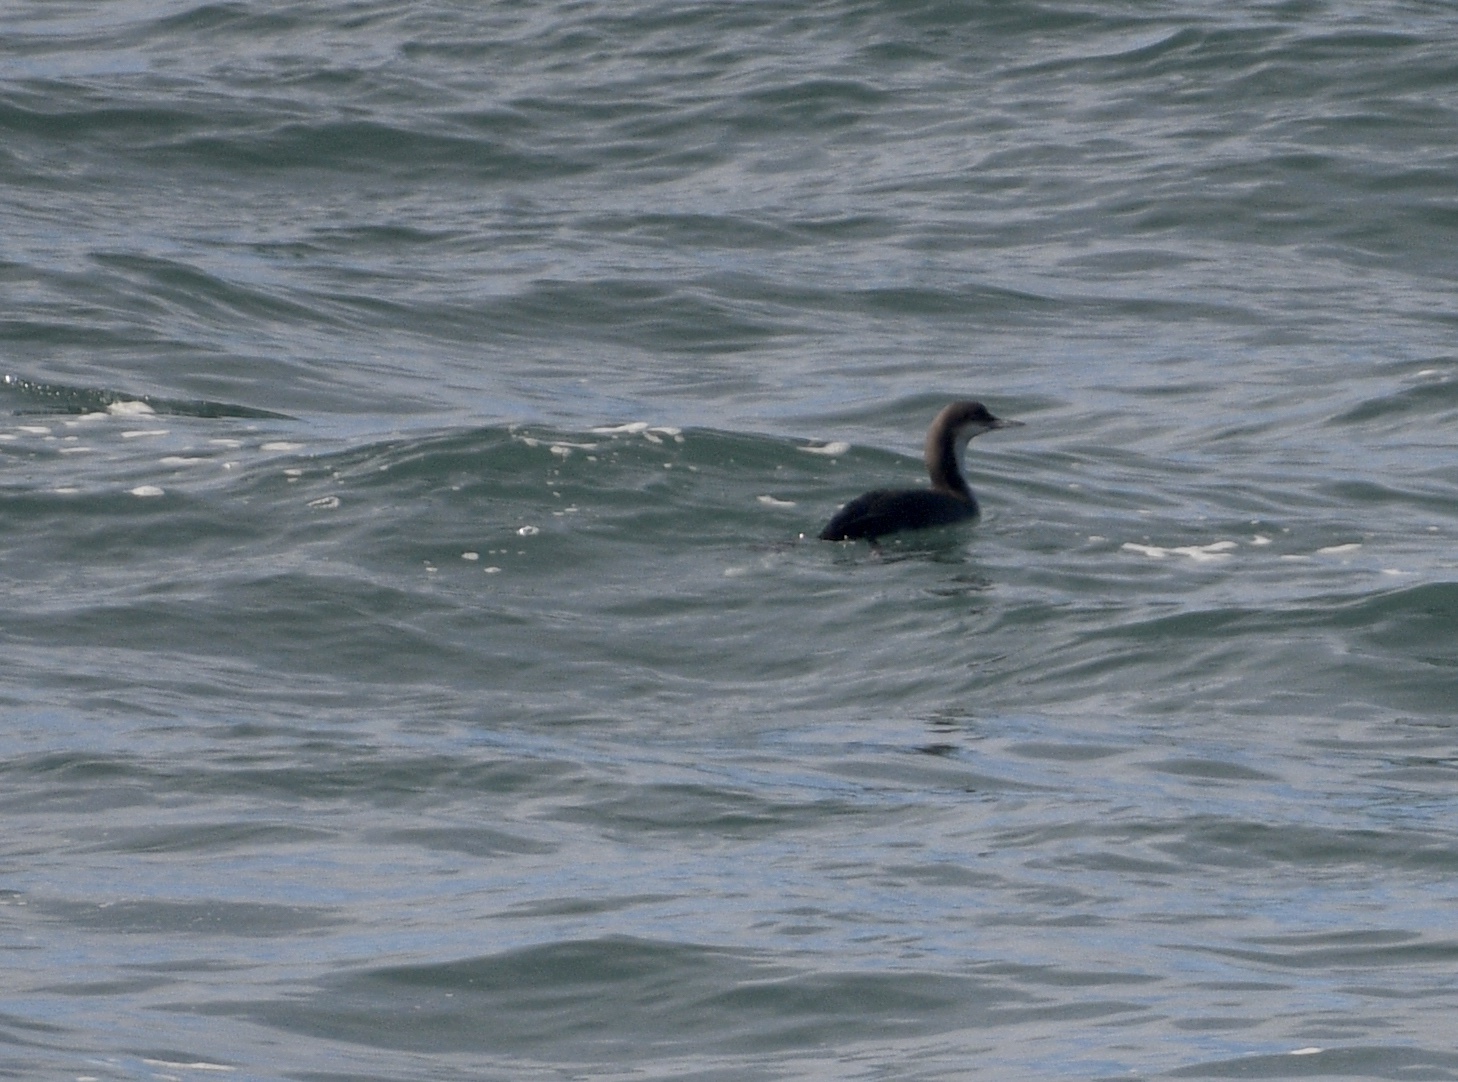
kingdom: Animalia
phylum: Chordata
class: Aves
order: Gaviiformes
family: Gaviidae
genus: Gavia
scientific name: Gavia pacifica
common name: Pacific loon
